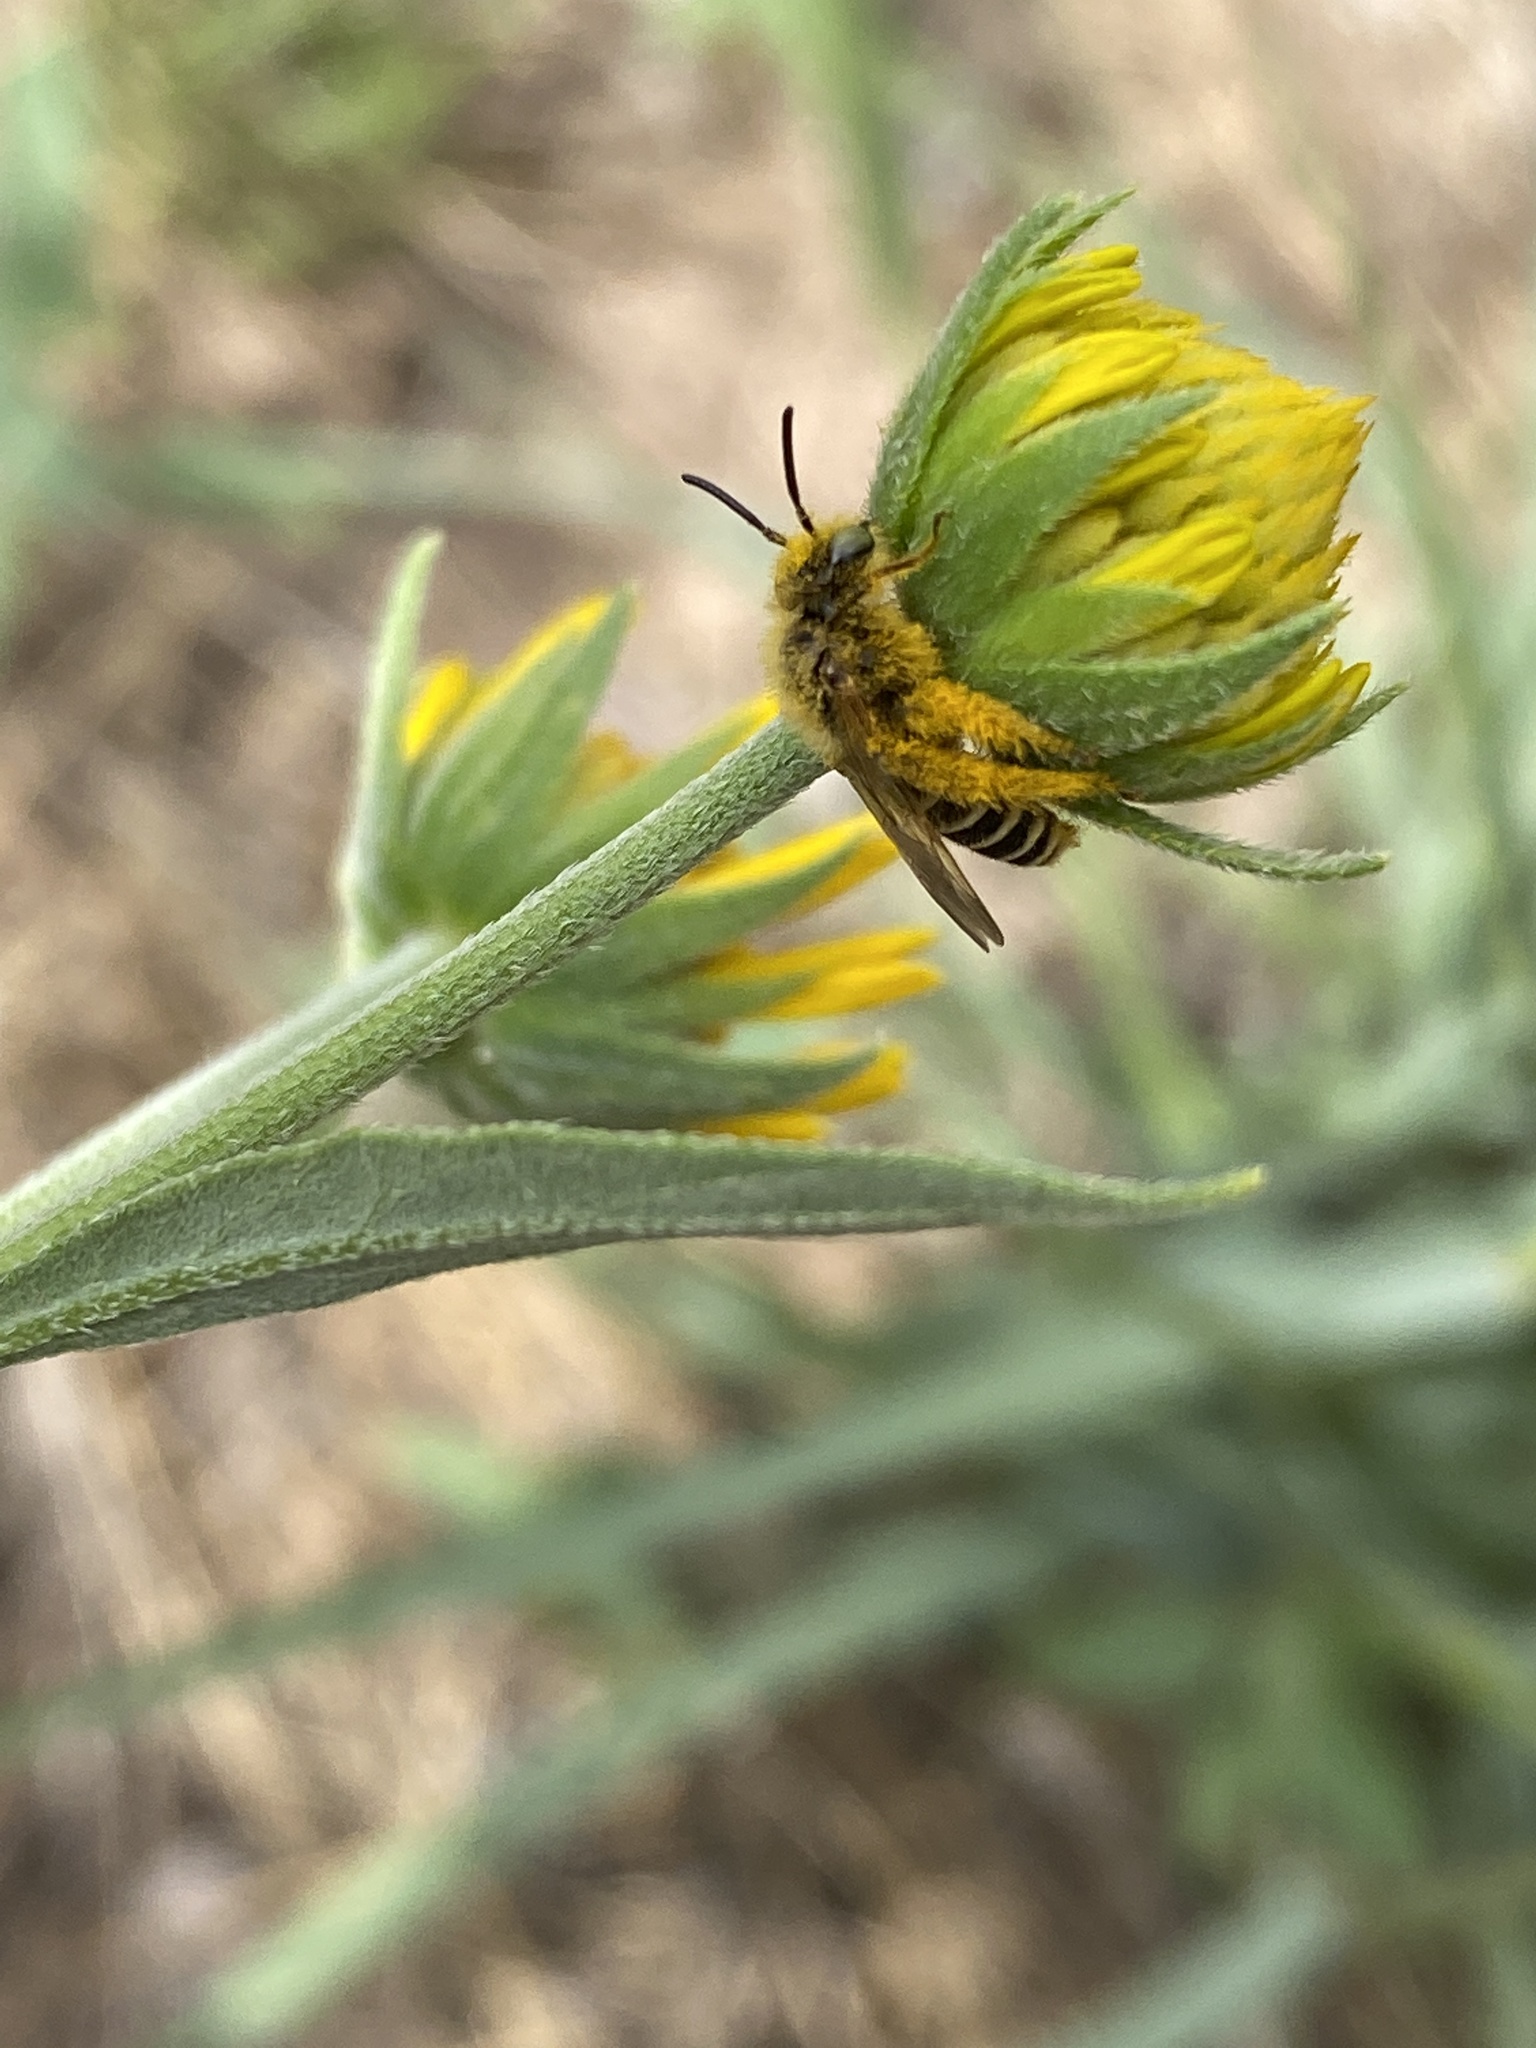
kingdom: Animalia
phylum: Arthropoda
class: Insecta
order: Hymenoptera
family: Melittidae
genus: Hesperapis
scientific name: Hesperapis
